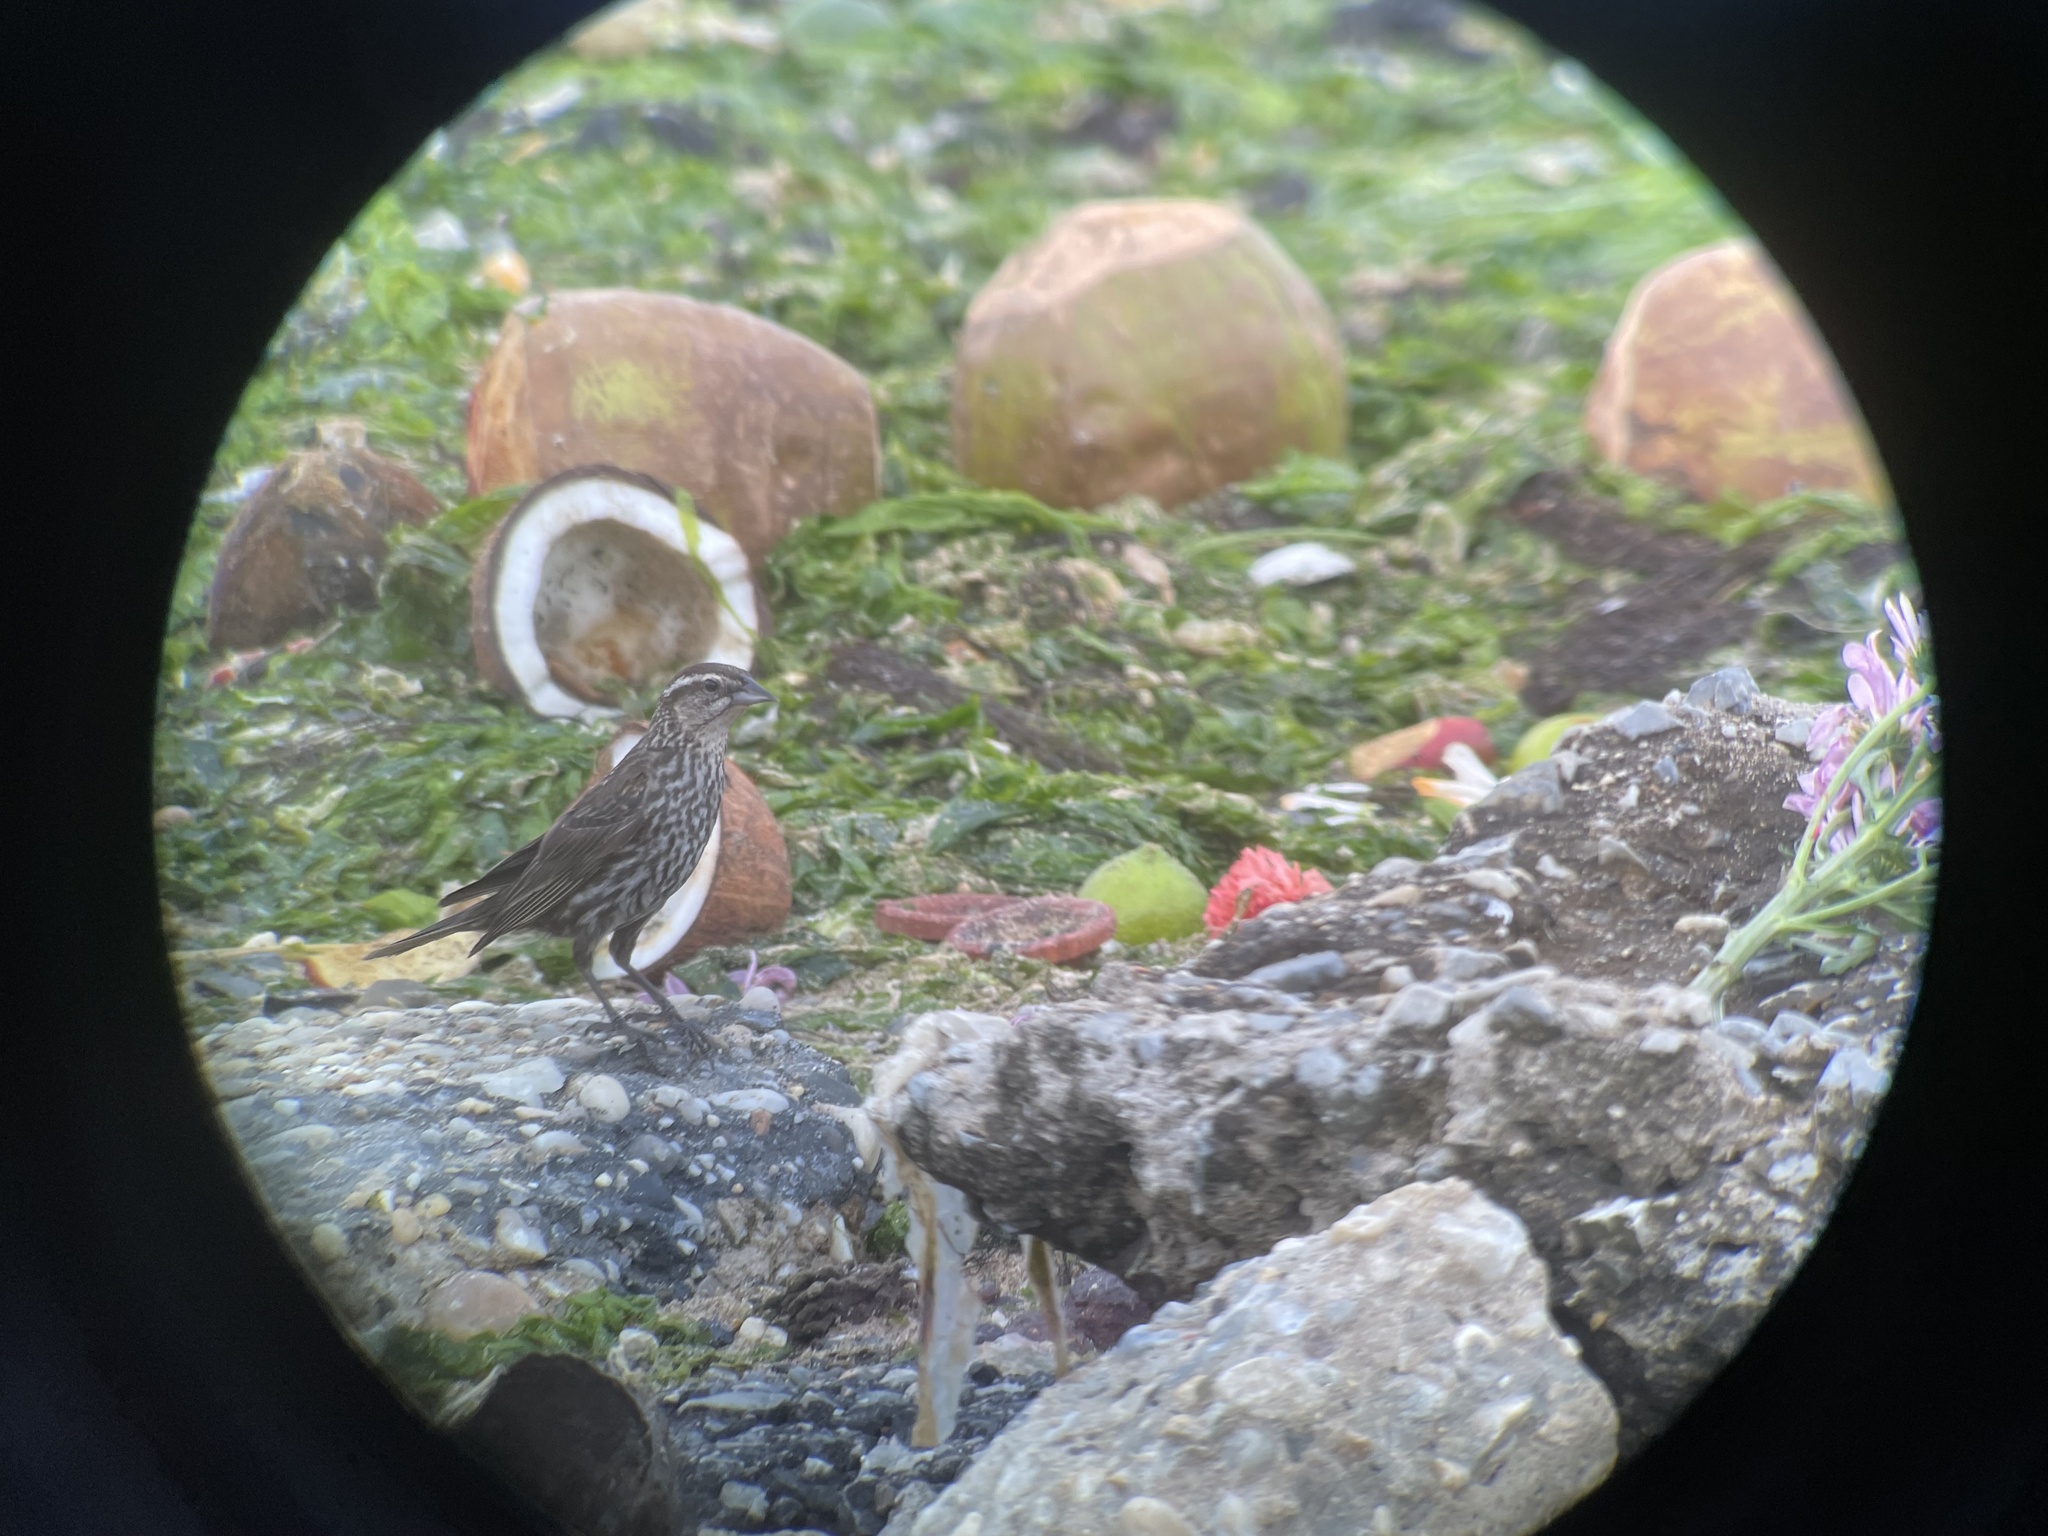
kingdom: Animalia
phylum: Chordata
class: Aves
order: Passeriformes
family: Icteridae
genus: Agelaius
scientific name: Agelaius phoeniceus
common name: Red-winged blackbird
